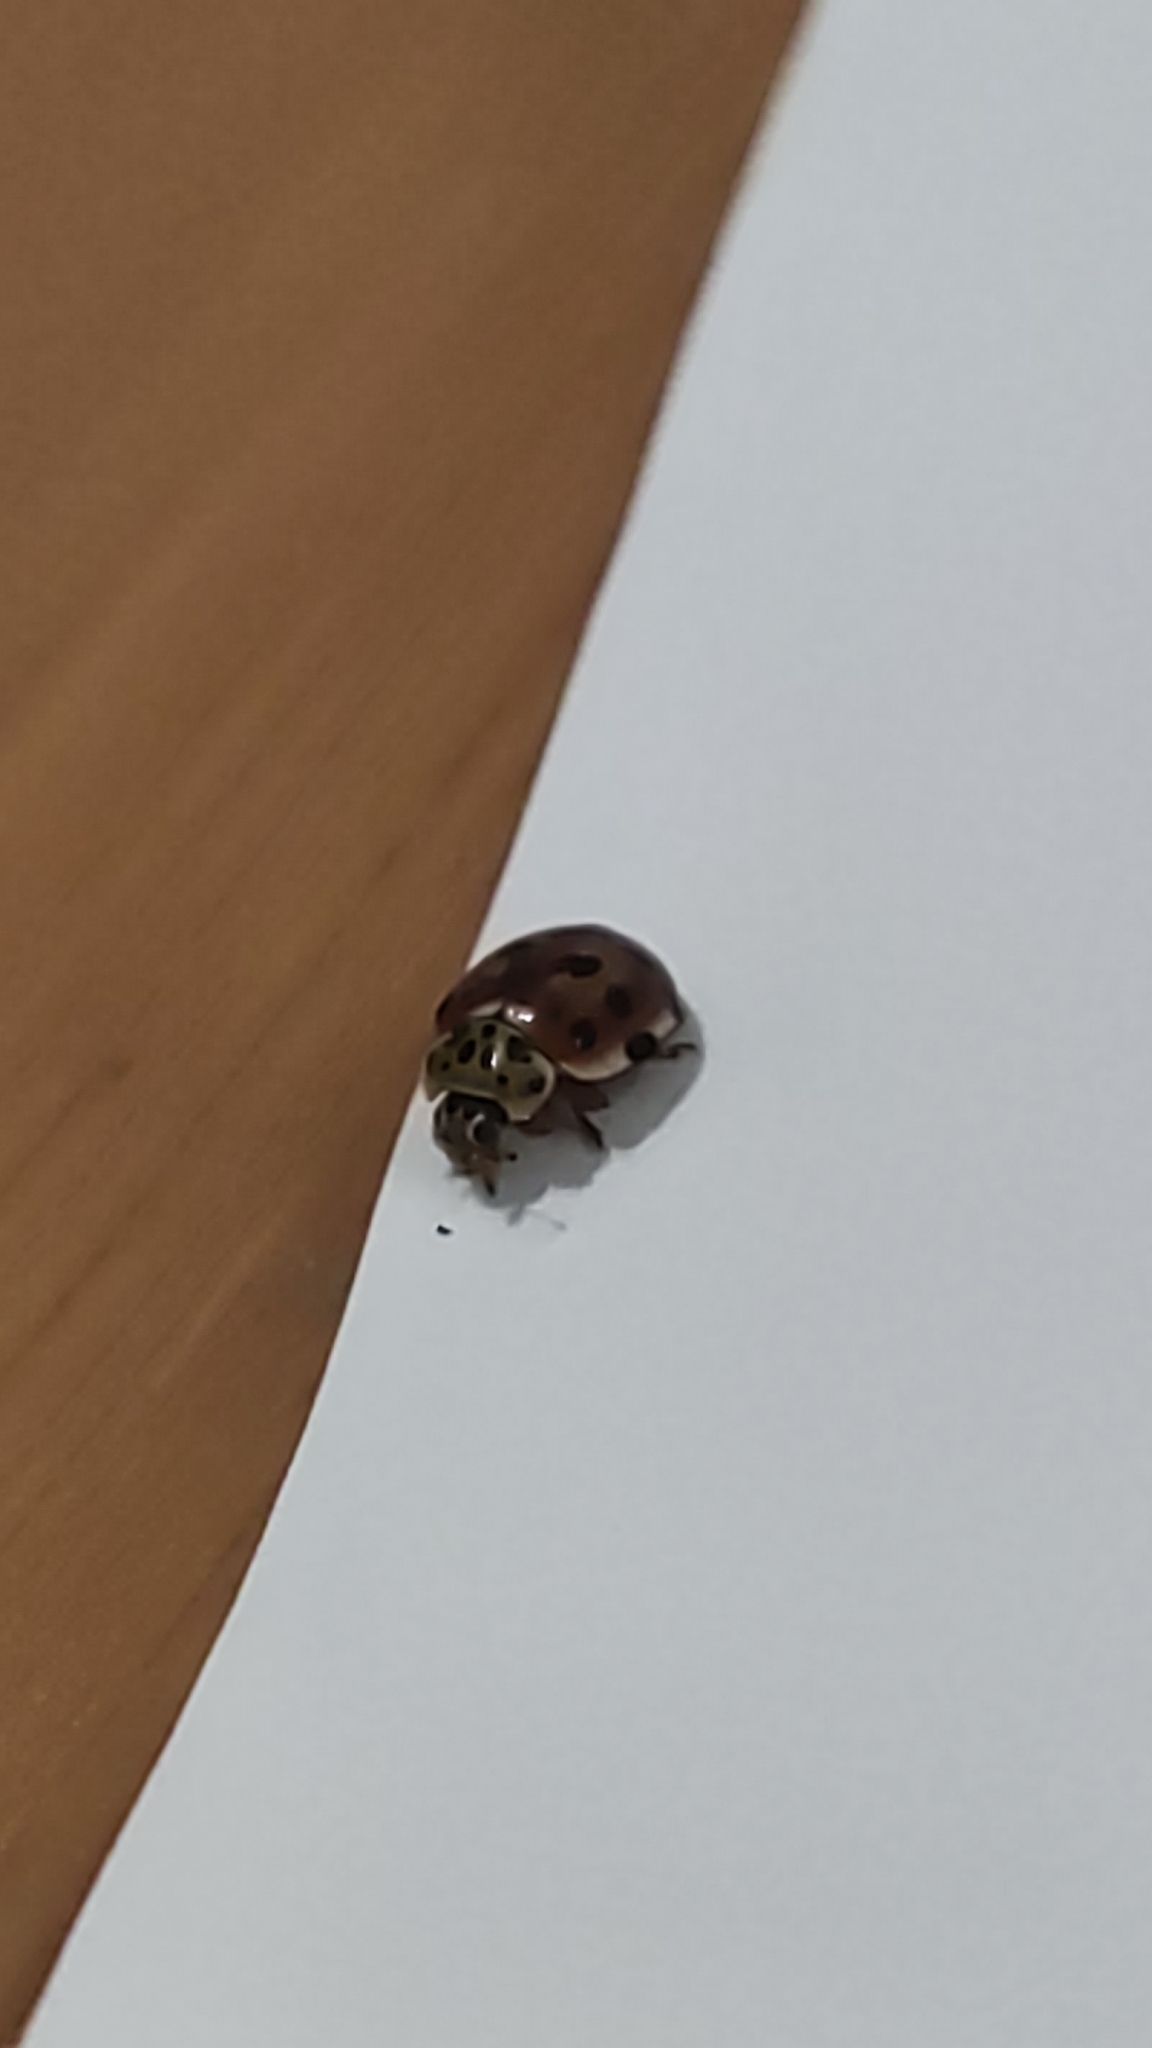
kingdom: Animalia
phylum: Arthropoda
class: Insecta
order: Coleoptera
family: Coccinellidae
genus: Harmonia
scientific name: Harmonia quadripunctata
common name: Cream-streaked ladybird
